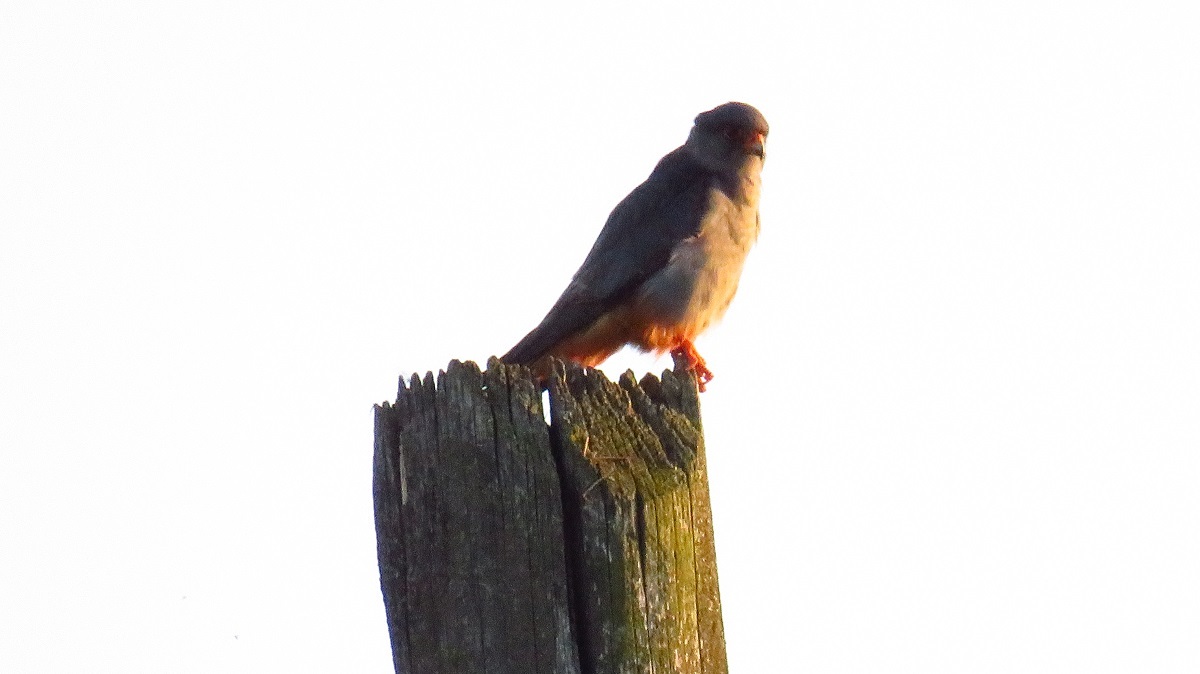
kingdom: Animalia
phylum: Chordata
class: Aves
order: Falconiformes
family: Falconidae
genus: Falco
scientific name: Falco vespertinus
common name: Red-footed falcon
